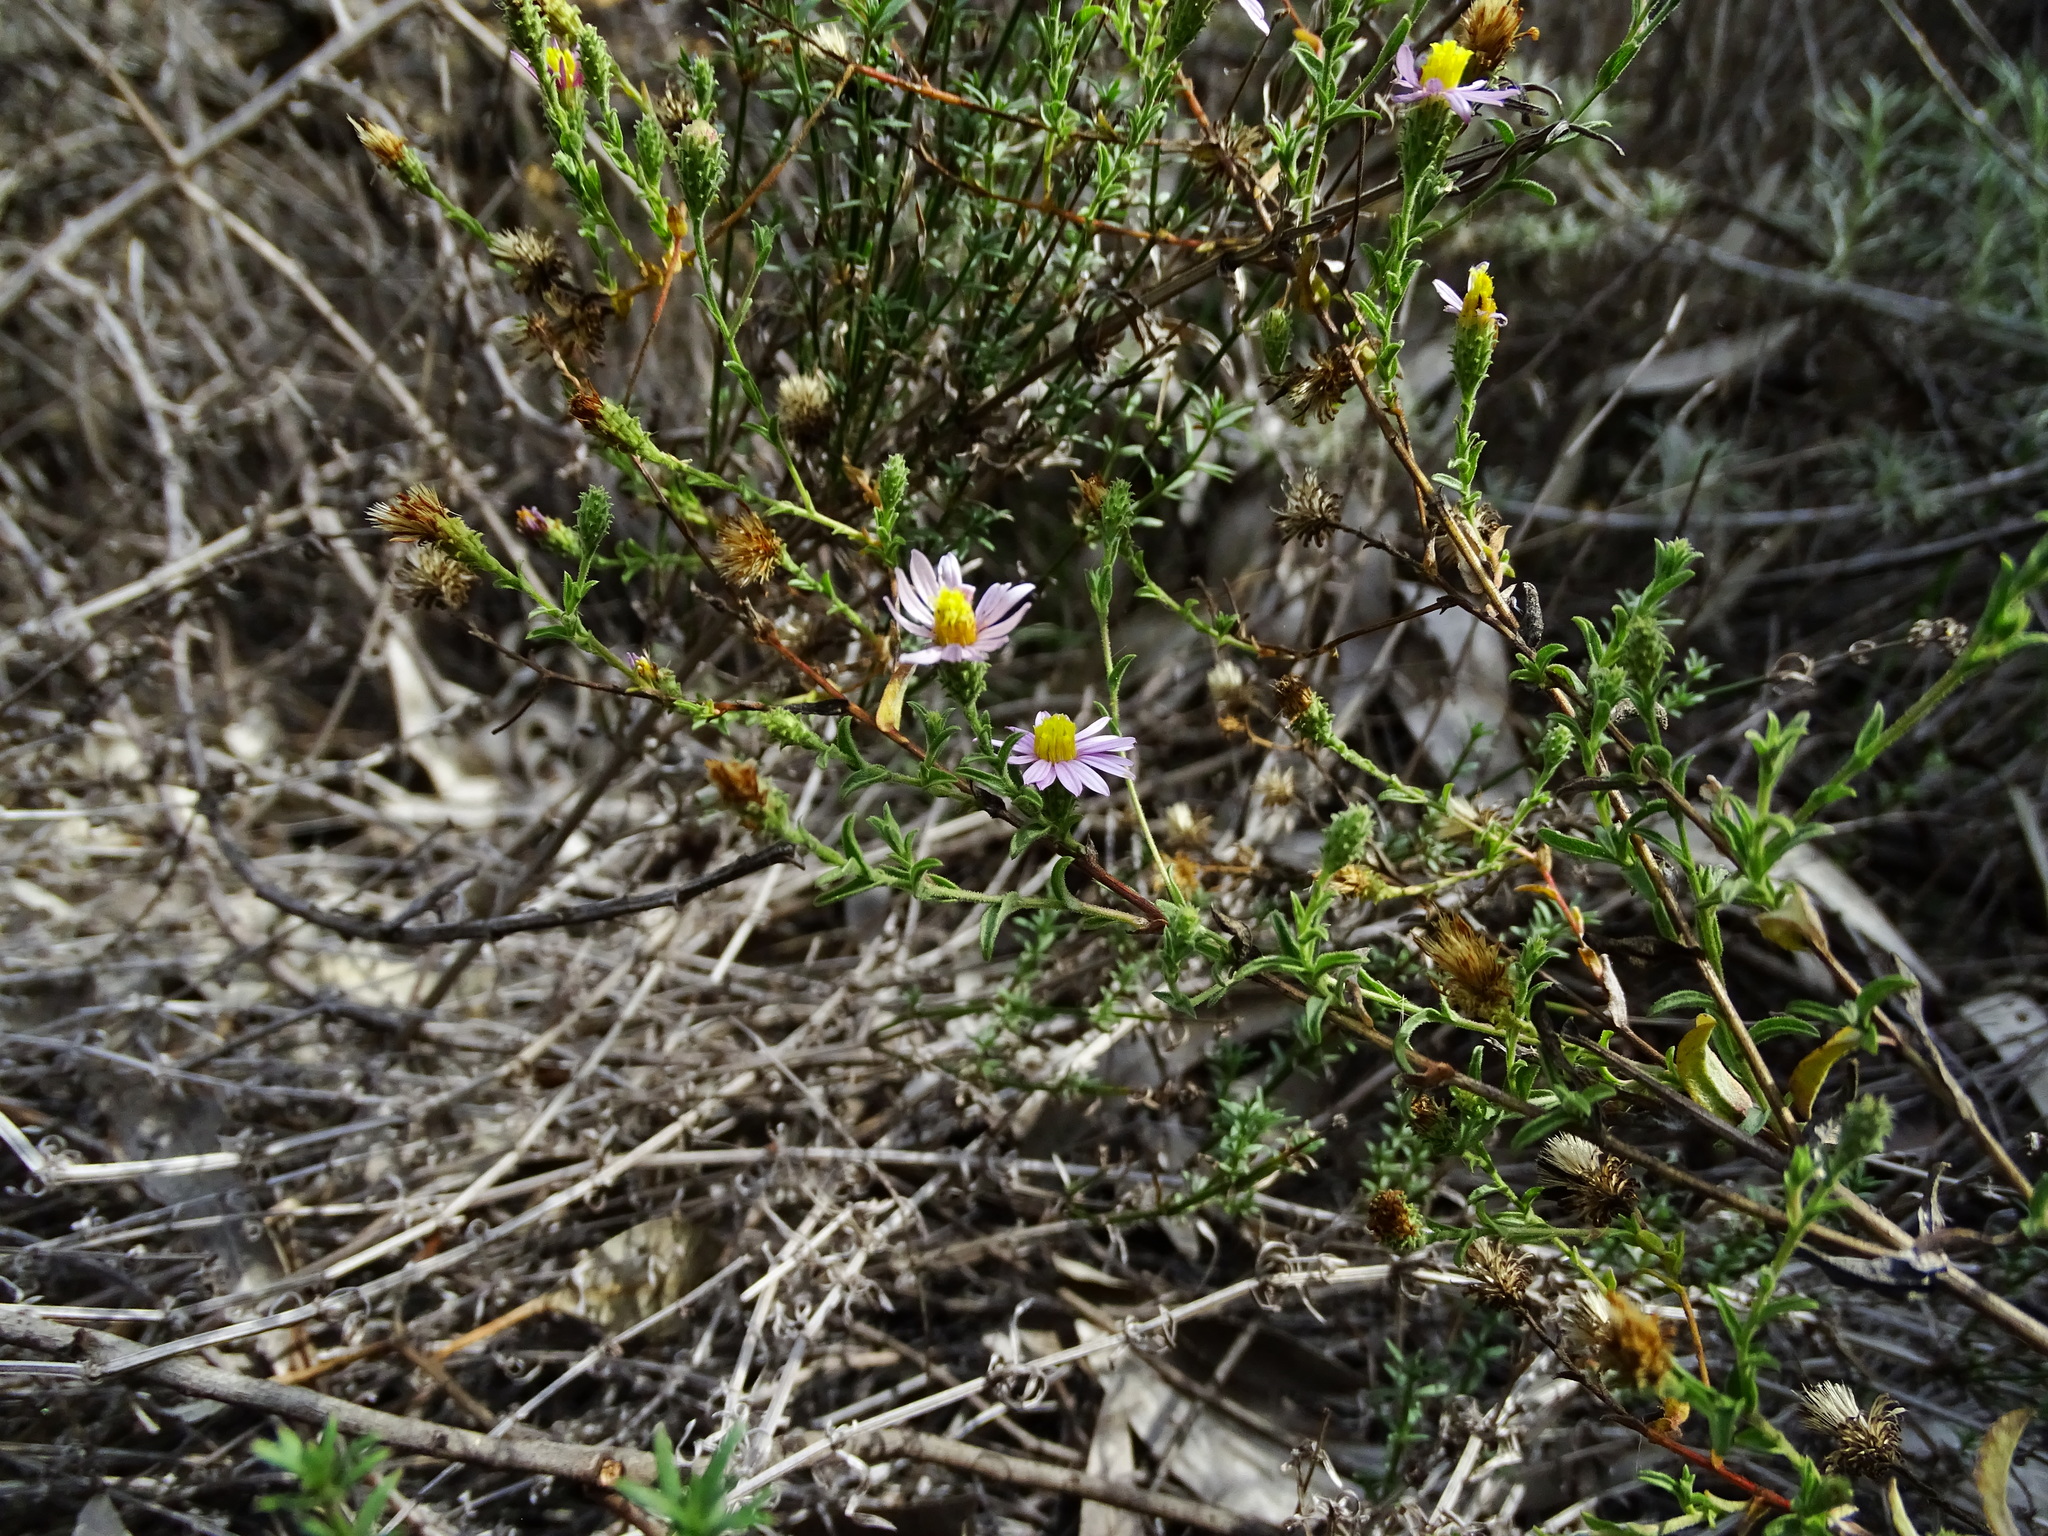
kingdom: Plantae
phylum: Tracheophyta
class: Magnoliopsida
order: Asterales
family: Asteraceae
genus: Corethrogyne
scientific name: Corethrogyne filaginifolia
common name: Sand-aster
